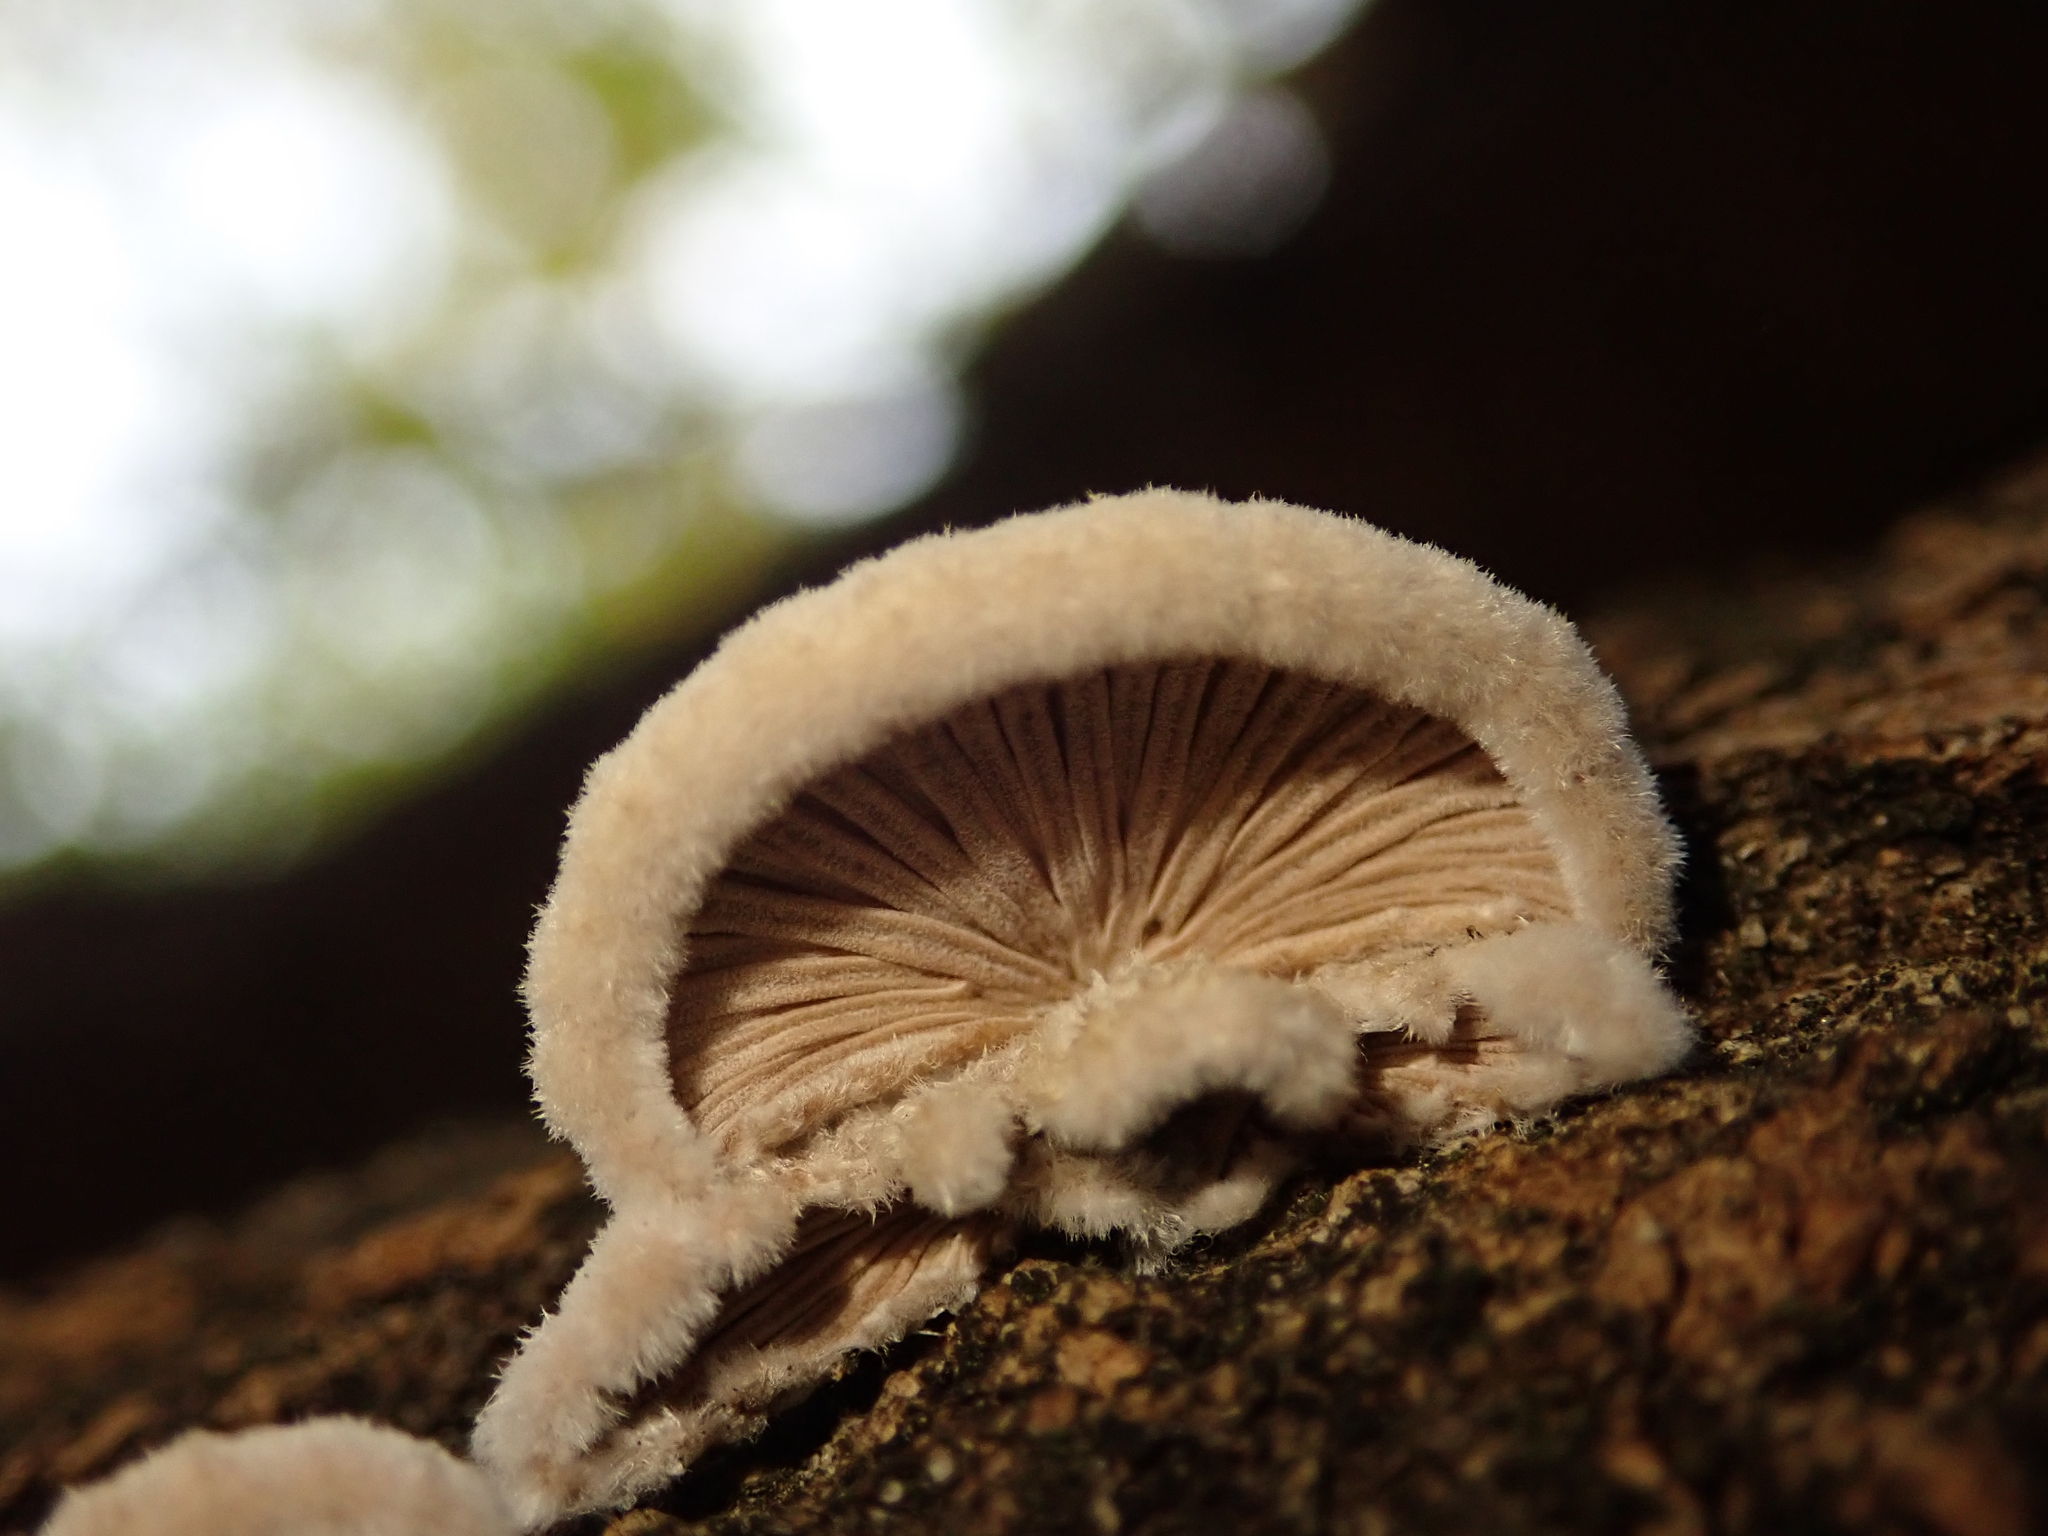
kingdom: Fungi
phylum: Basidiomycota
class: Agaricomycetes
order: Agaricales
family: Schizophyllaceae
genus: Schizophyllum
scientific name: Schizophyllum commune
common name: Common porecrust
